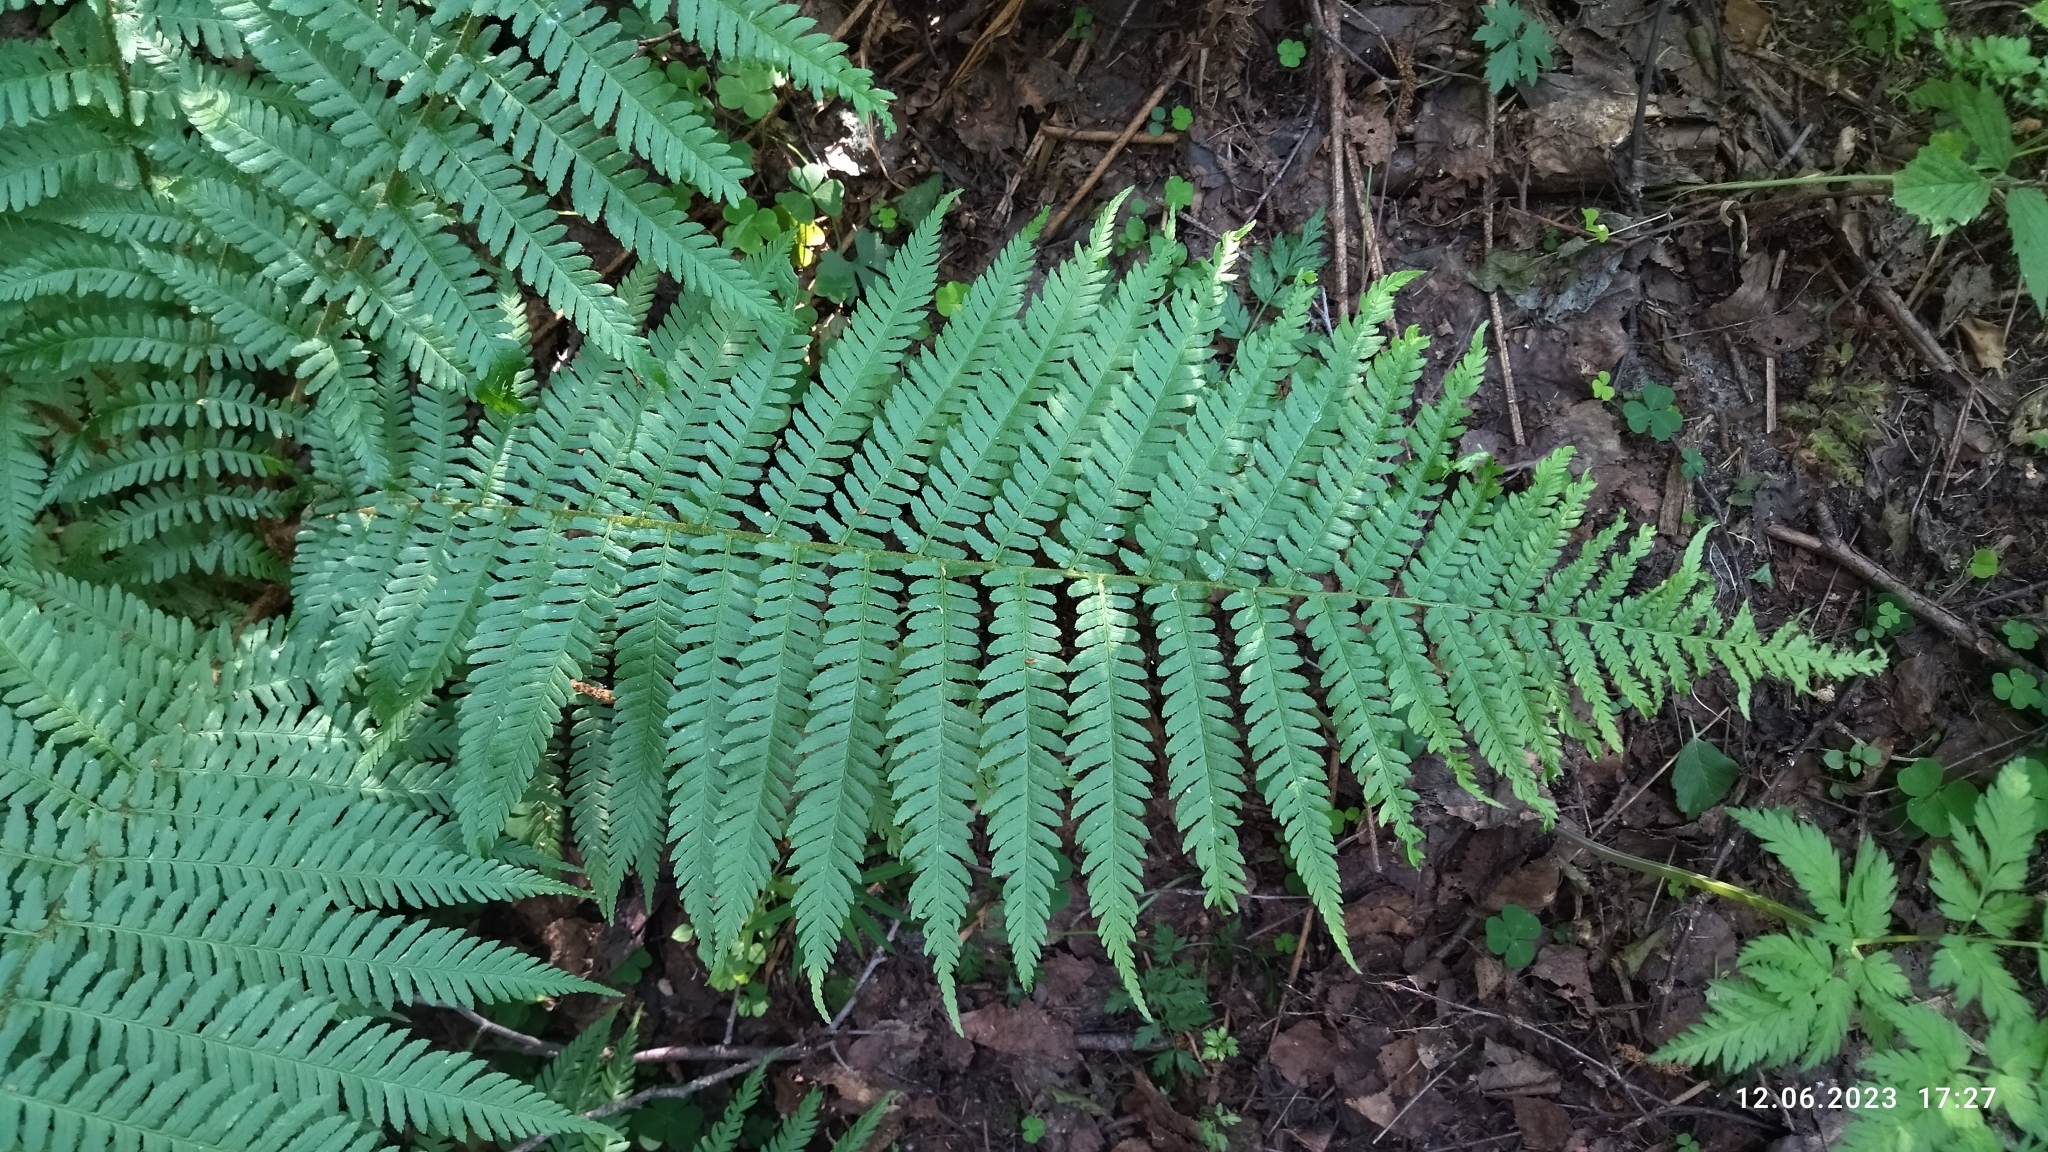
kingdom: Plantae
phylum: Tracheophyta
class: Polypodiopsida
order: Polypodiales
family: Dryopteridaceae
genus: Dryopteris
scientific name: Dryopteris filix-mas
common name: Male fern
